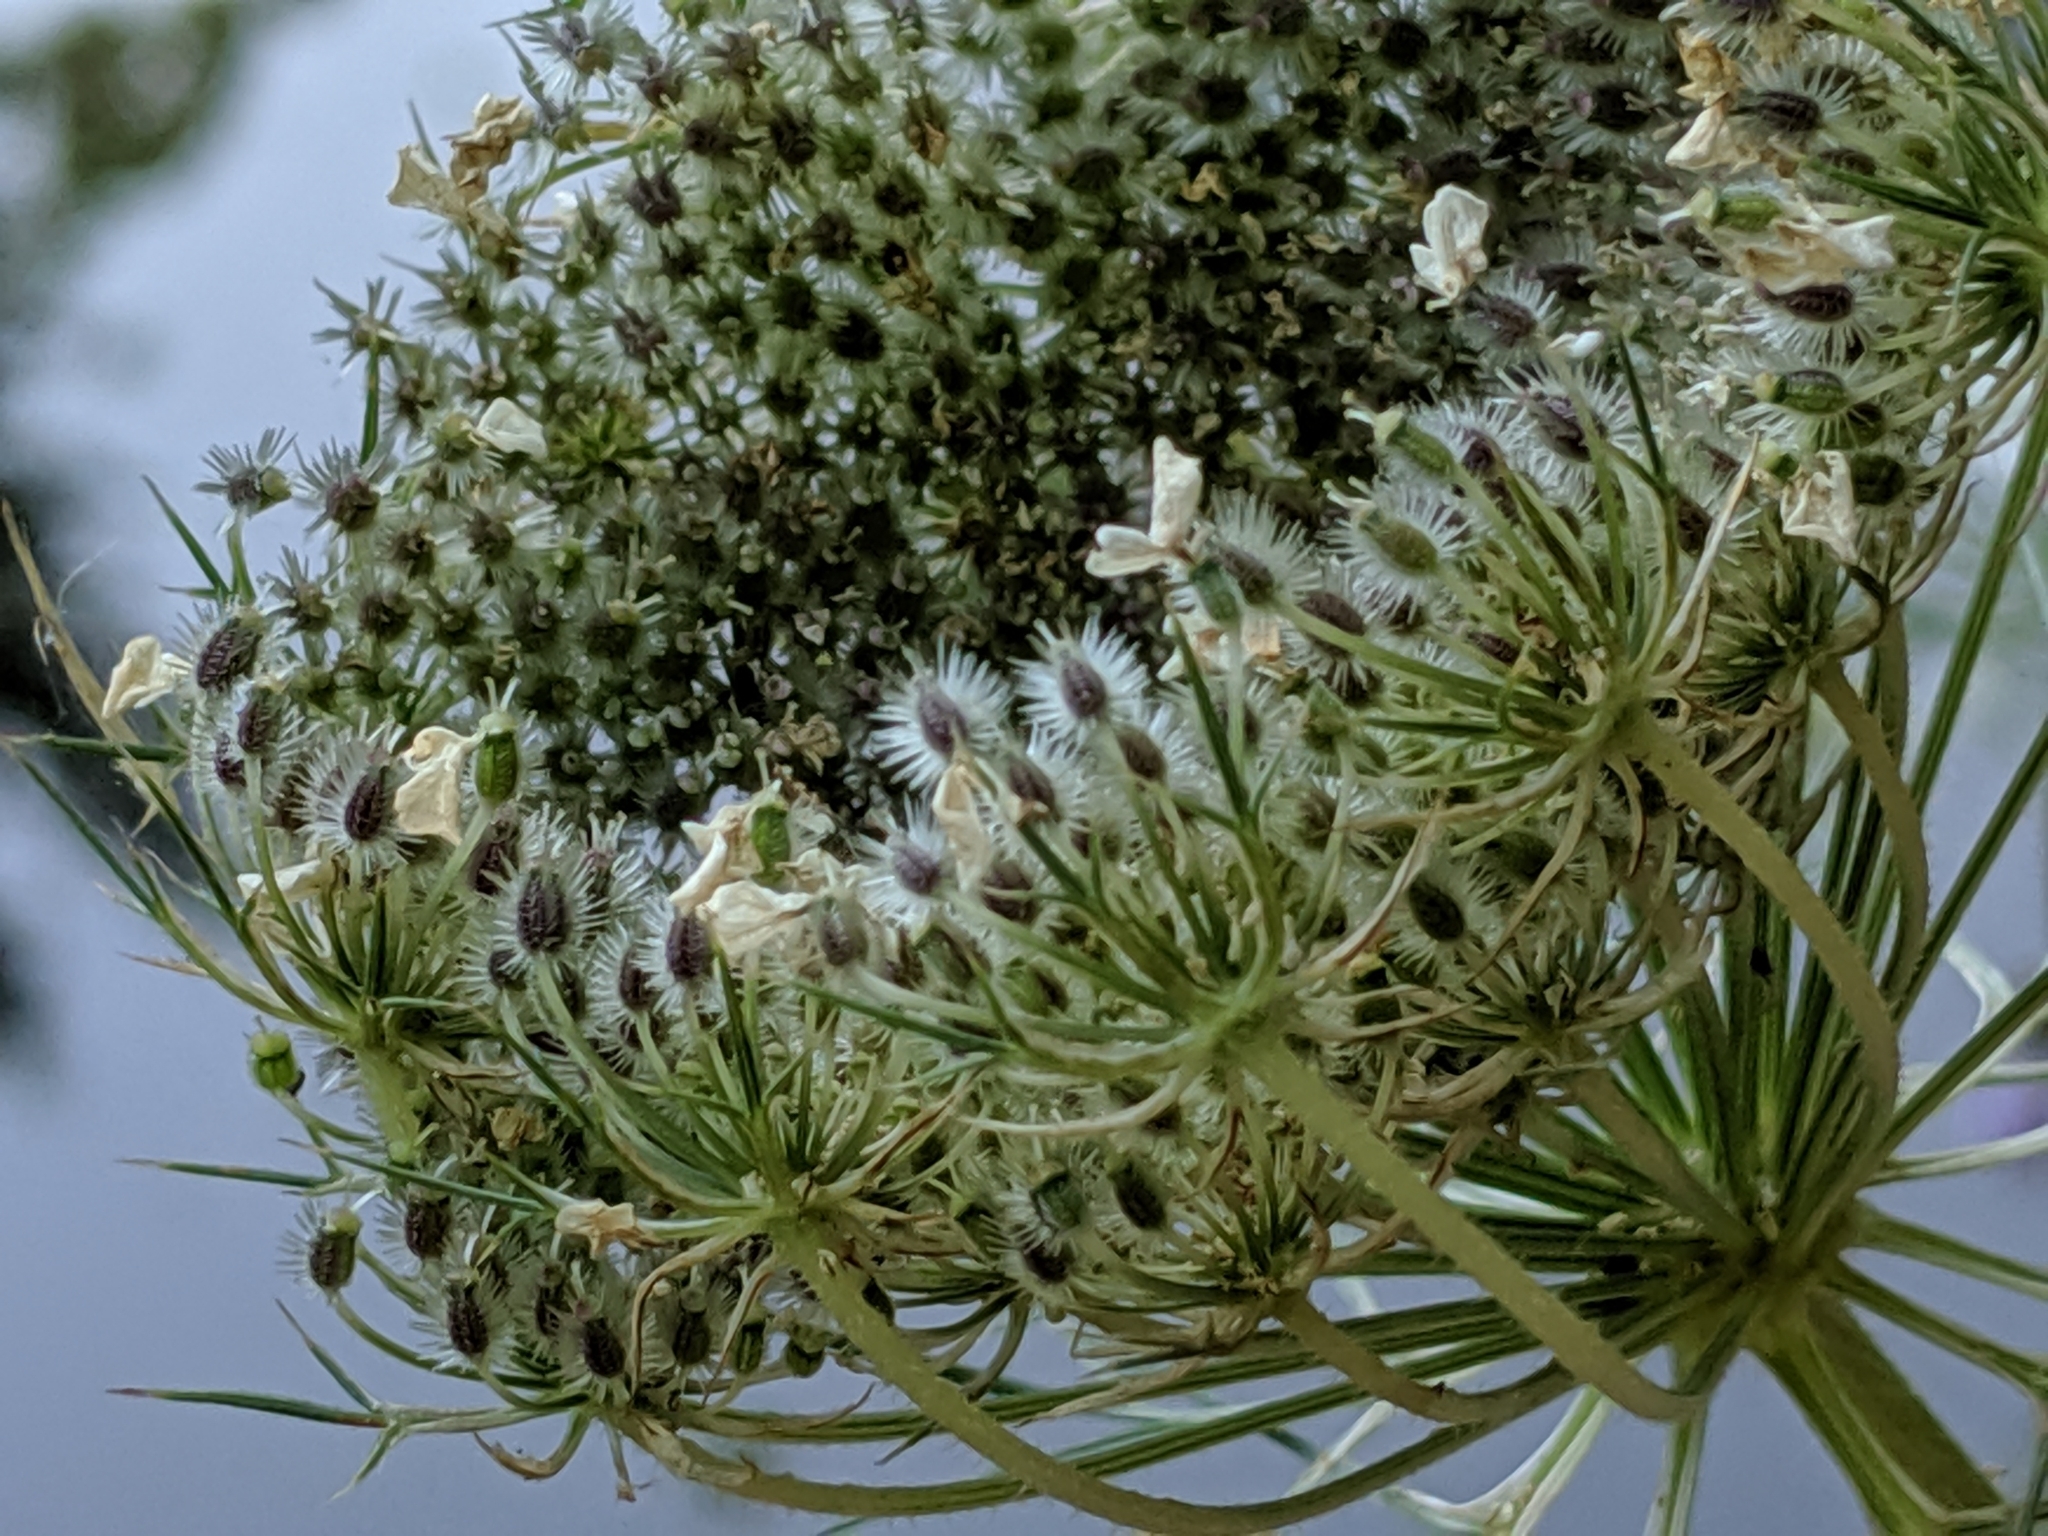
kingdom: Plantae
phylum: Tracheophyta
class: Magnoliopsida
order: Apiales
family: Apiaceae
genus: Daucus
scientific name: Daucus carota
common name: Wild carrot
